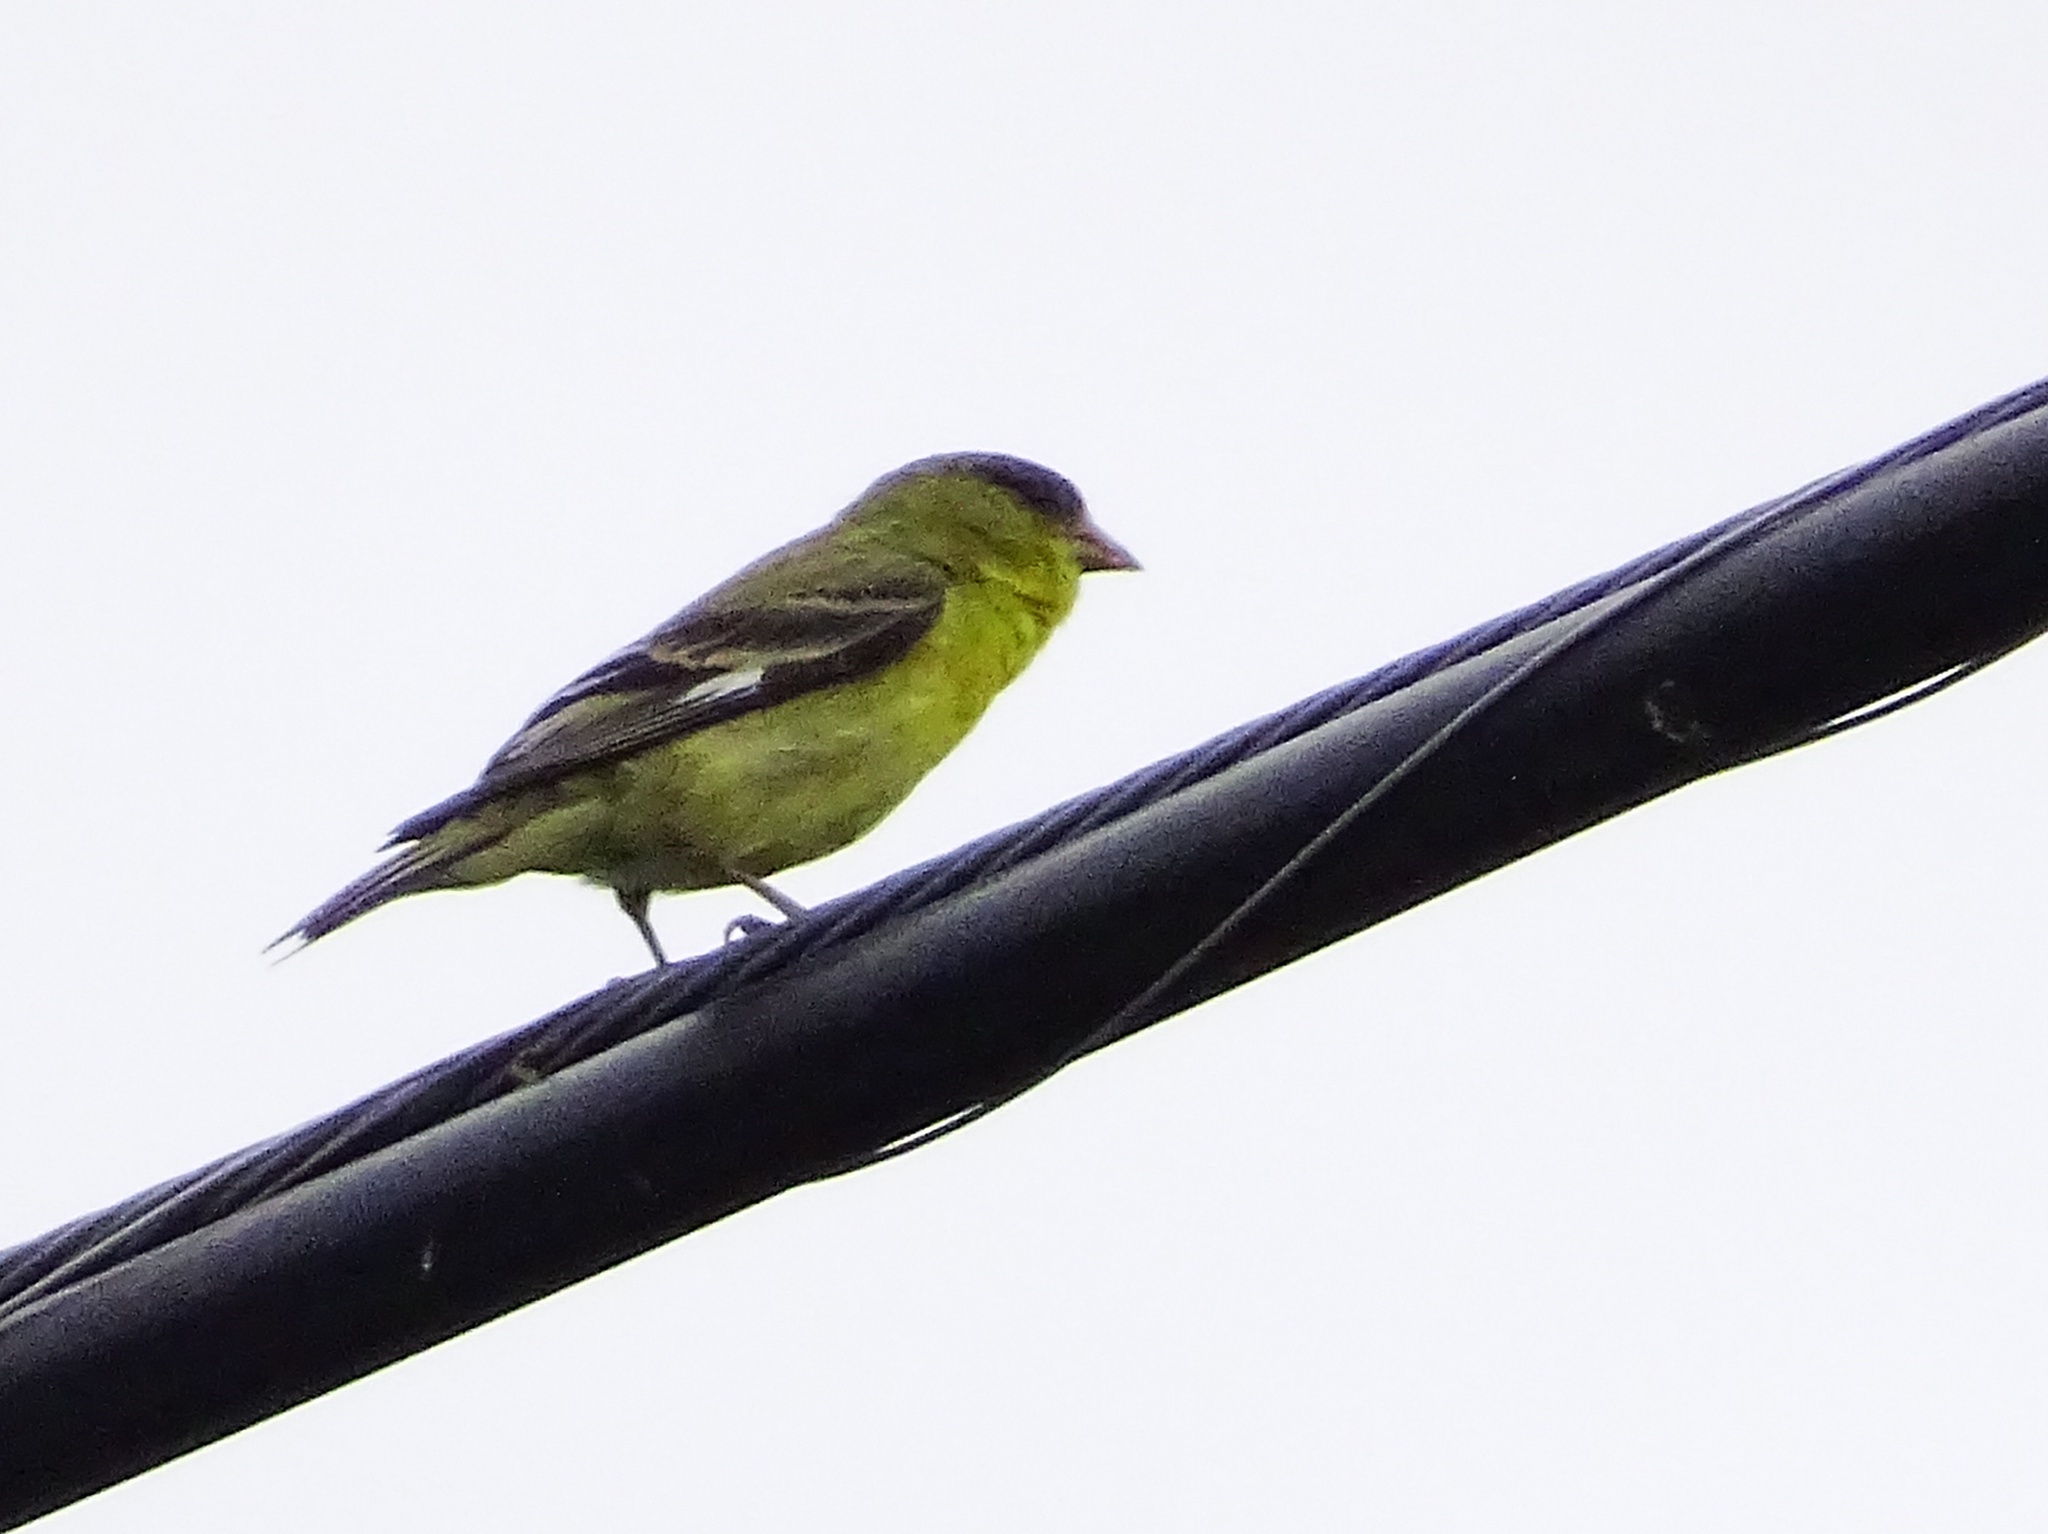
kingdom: Animalia
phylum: Chordata
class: Aves
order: Passeriformes
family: Fringillidae
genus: Spinus
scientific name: Spinus psaltria
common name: Lesser goldfinch
